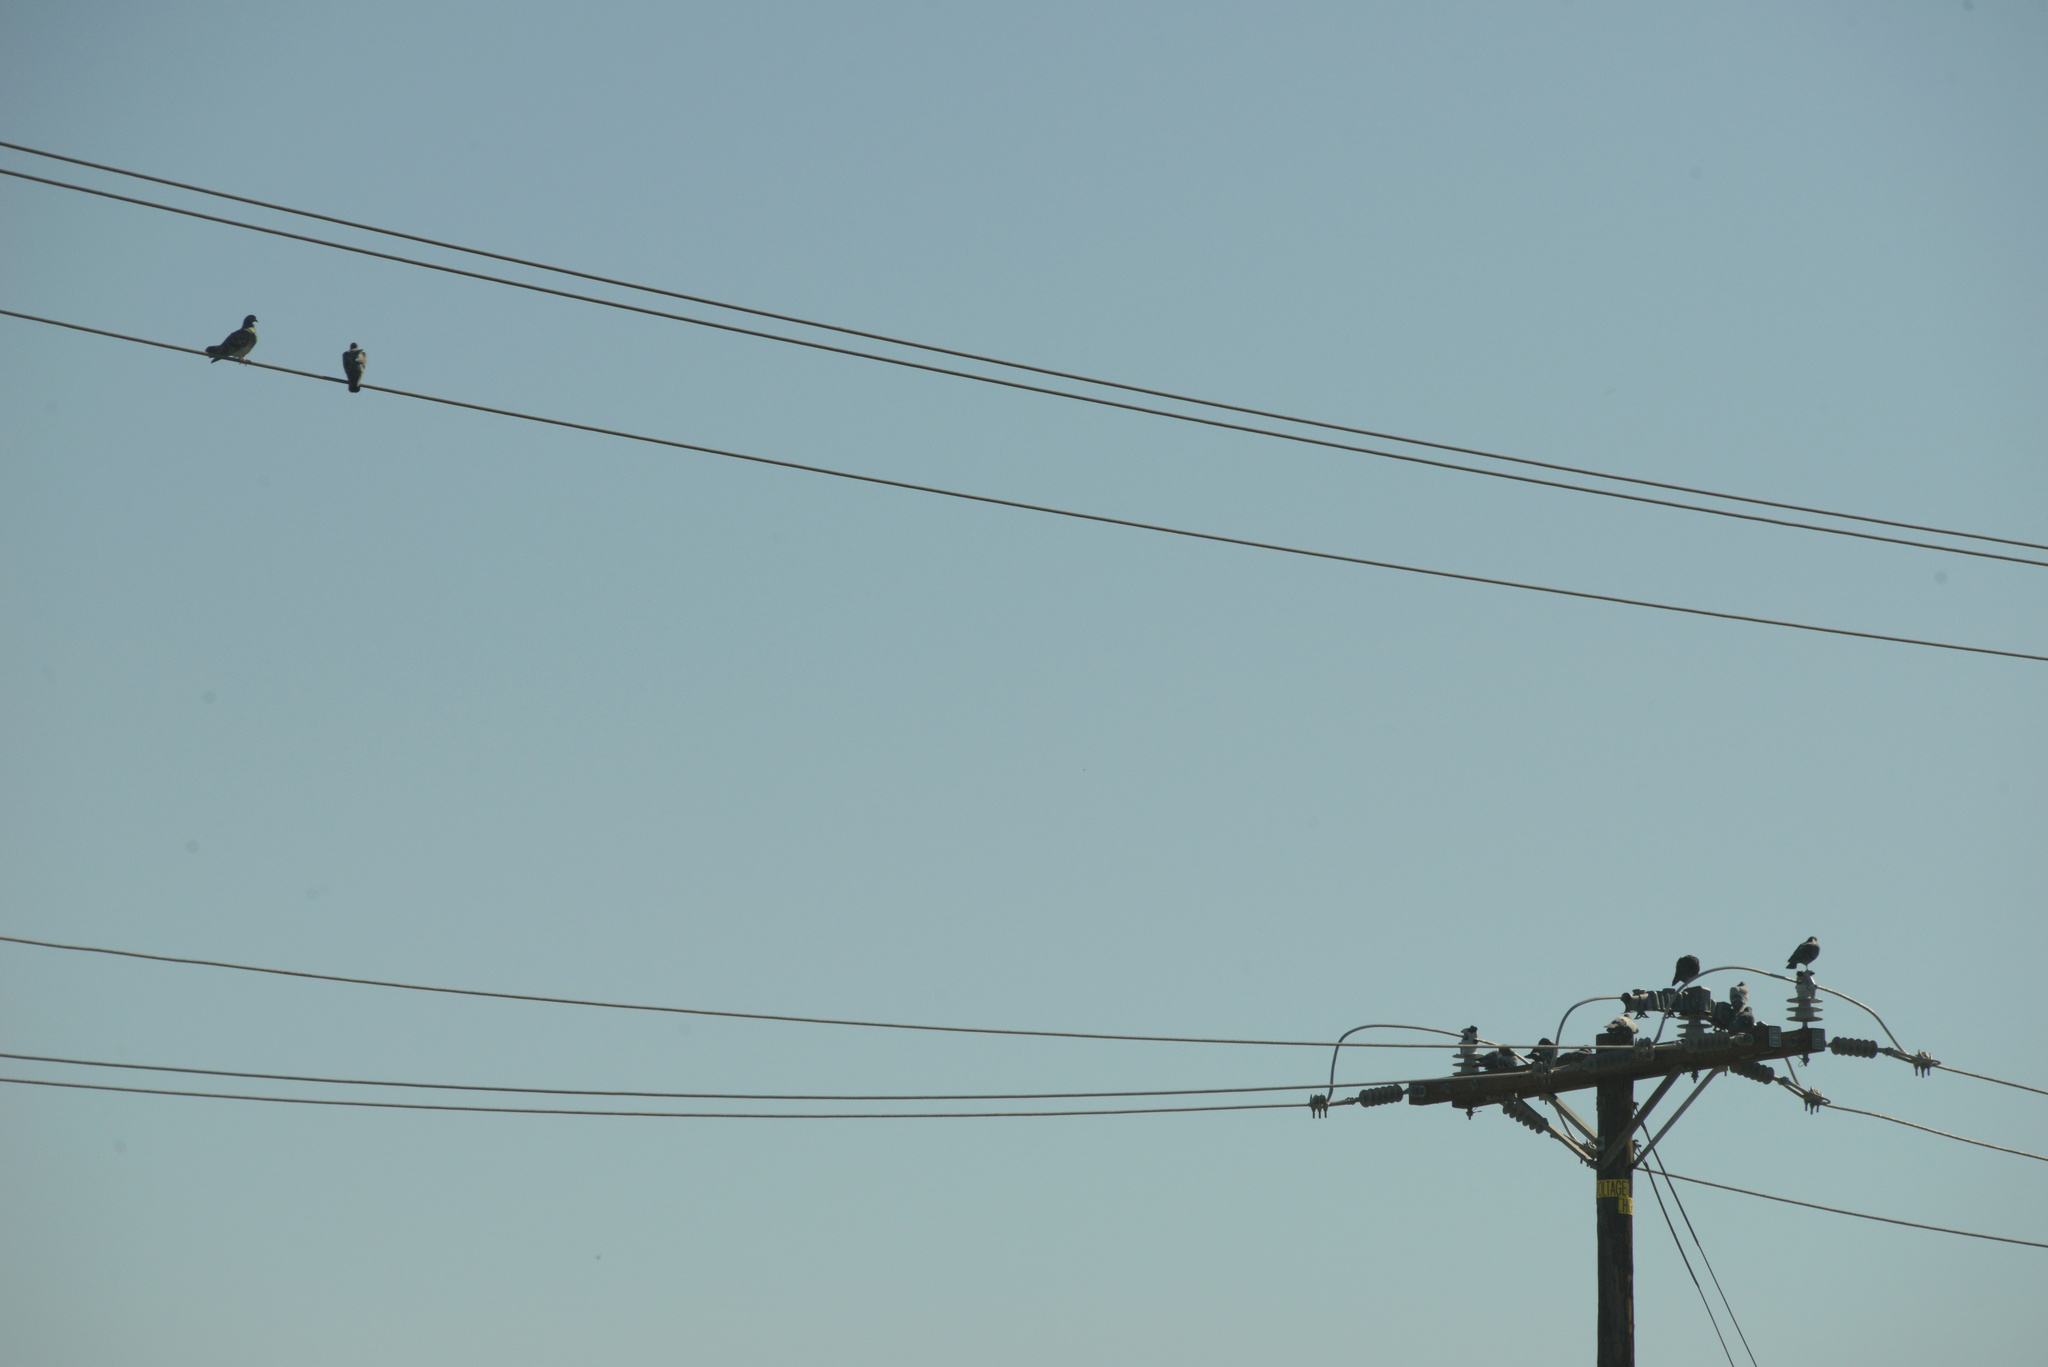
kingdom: Animalia
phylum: Chordata
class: Aves
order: Columbiformes
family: Columbidae
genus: Columba
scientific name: Columba livia
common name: Rock pigeon
